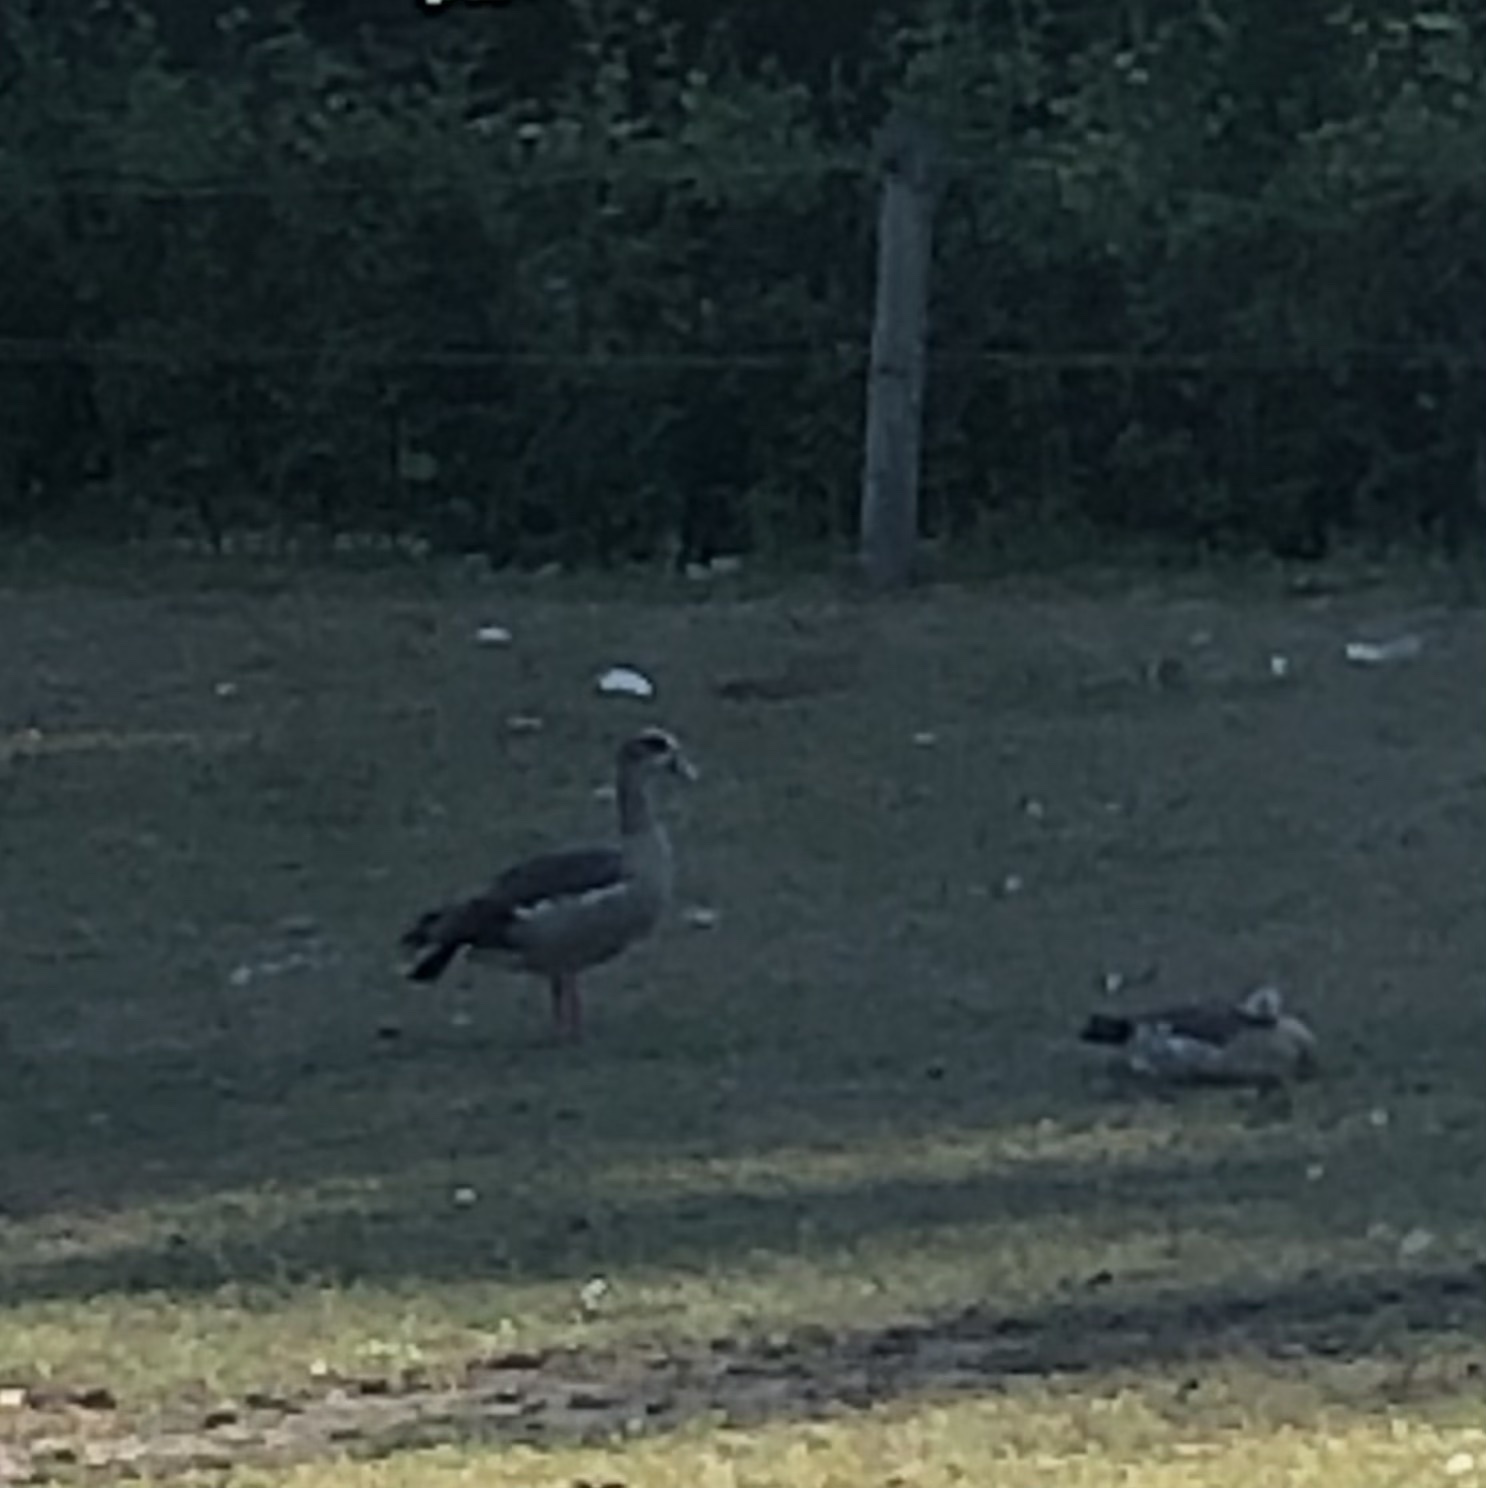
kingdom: Animalia
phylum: Chordata
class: Aves
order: Anseriformes
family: Anatidae
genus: Alopochen
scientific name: Alopochen aegyptiaca
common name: Egyptian goose
